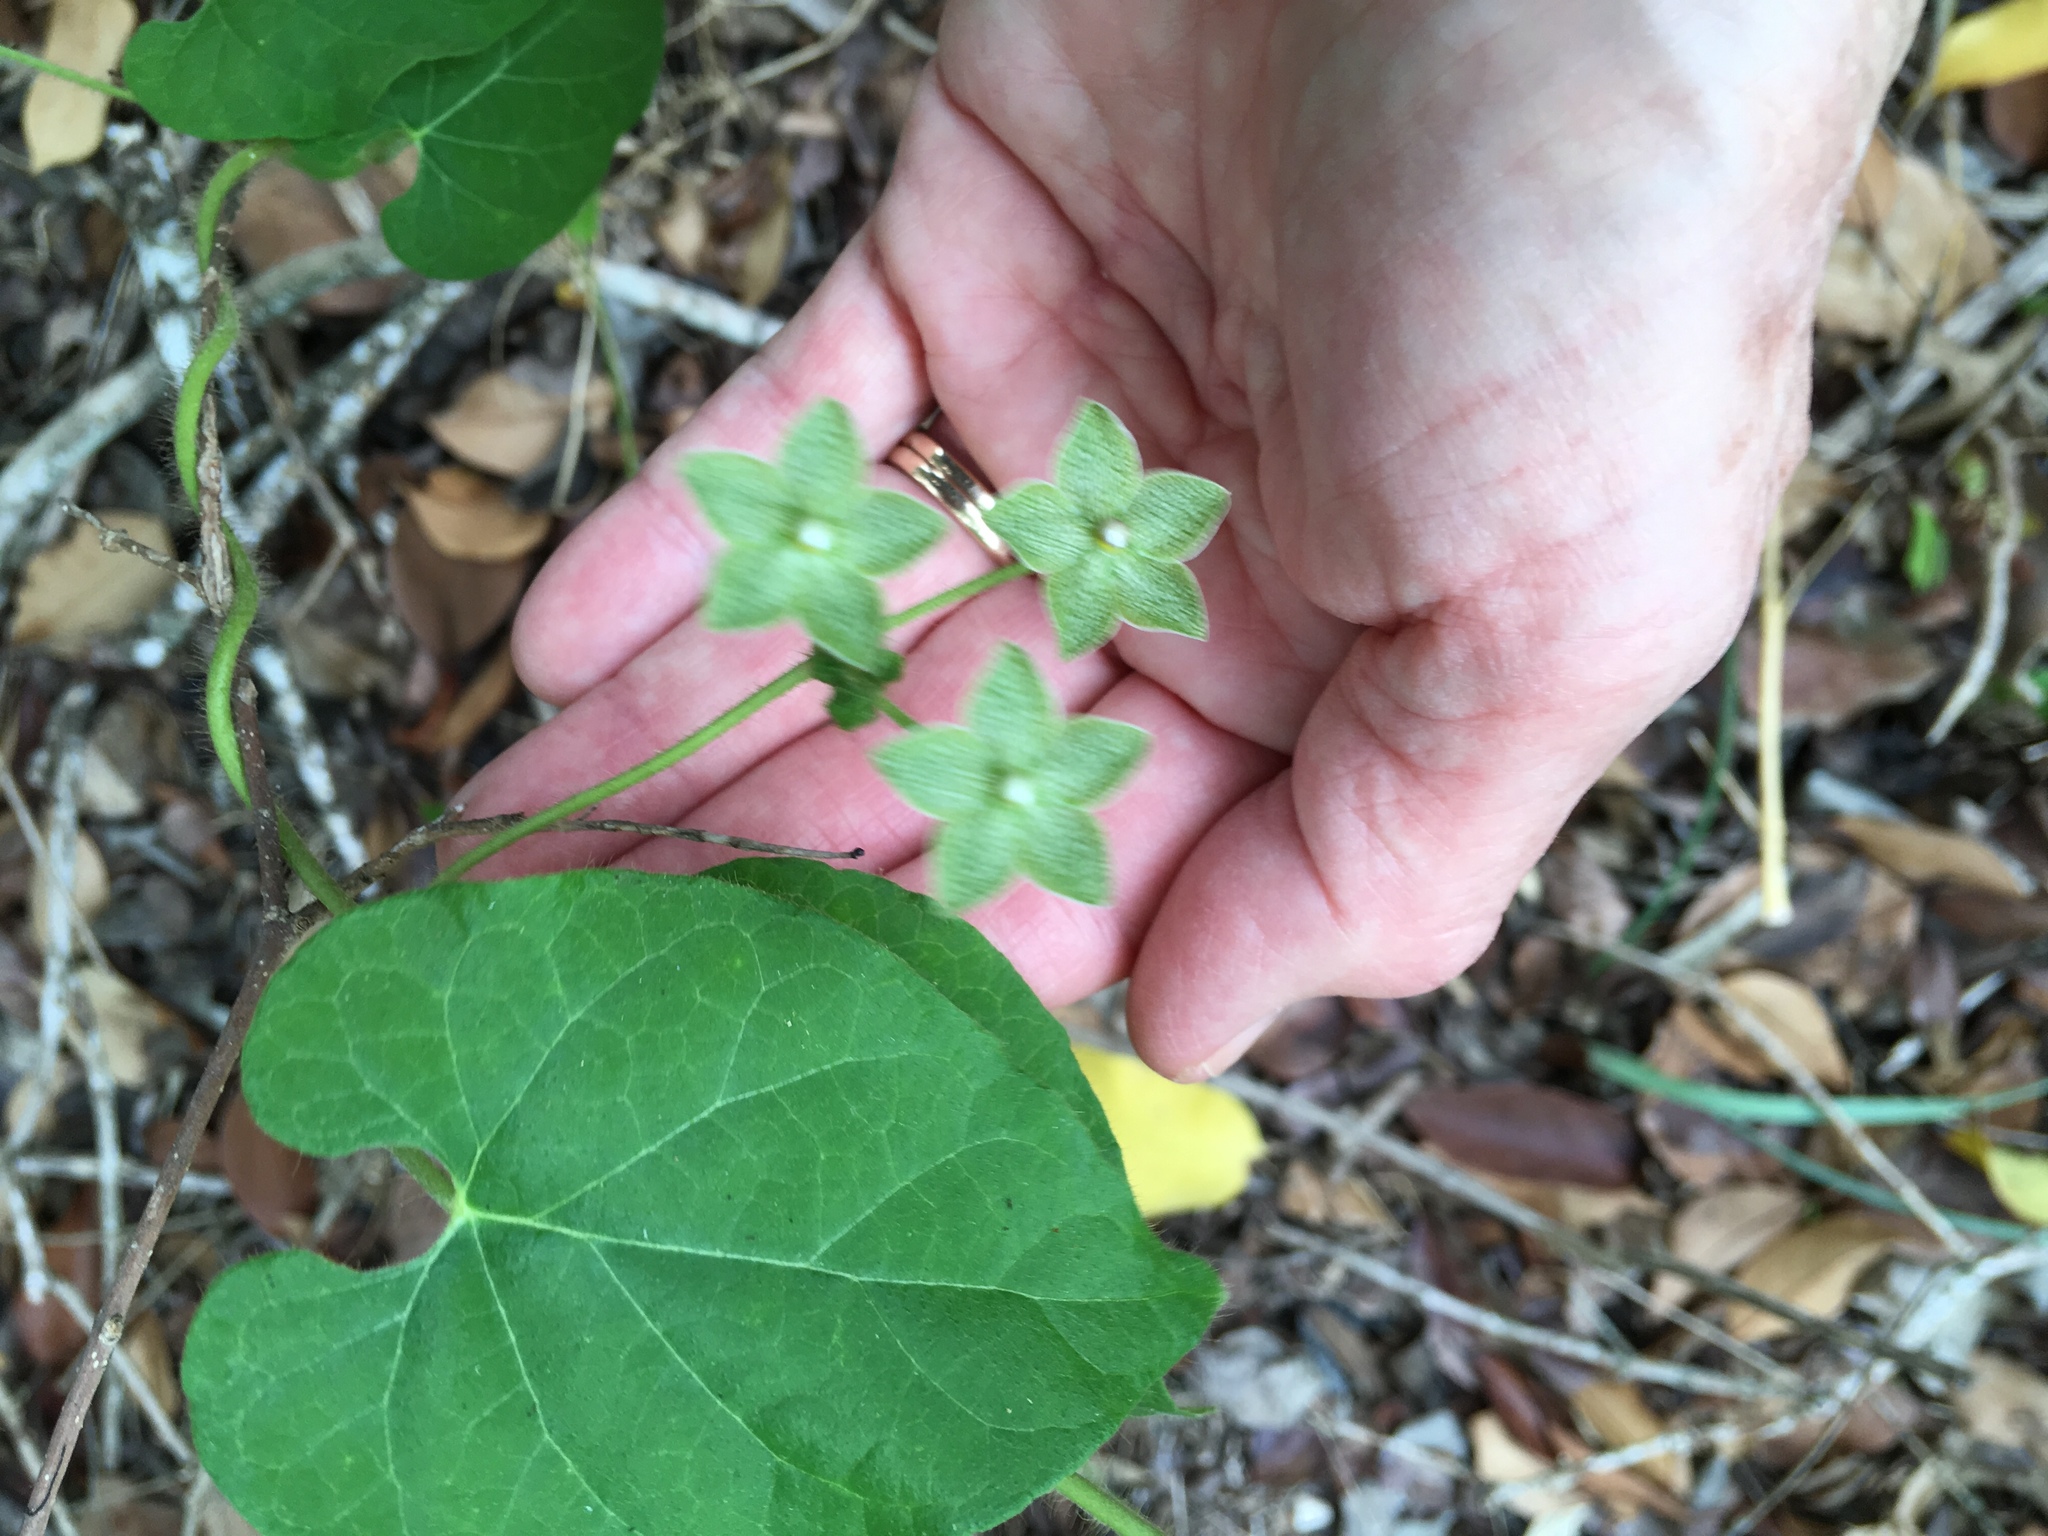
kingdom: Plantae
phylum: Tracheophyta
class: Magnoliopsida
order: Gentianales
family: Apocynaceae
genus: Dictyanthus
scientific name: Dictyanthus reticulatus
